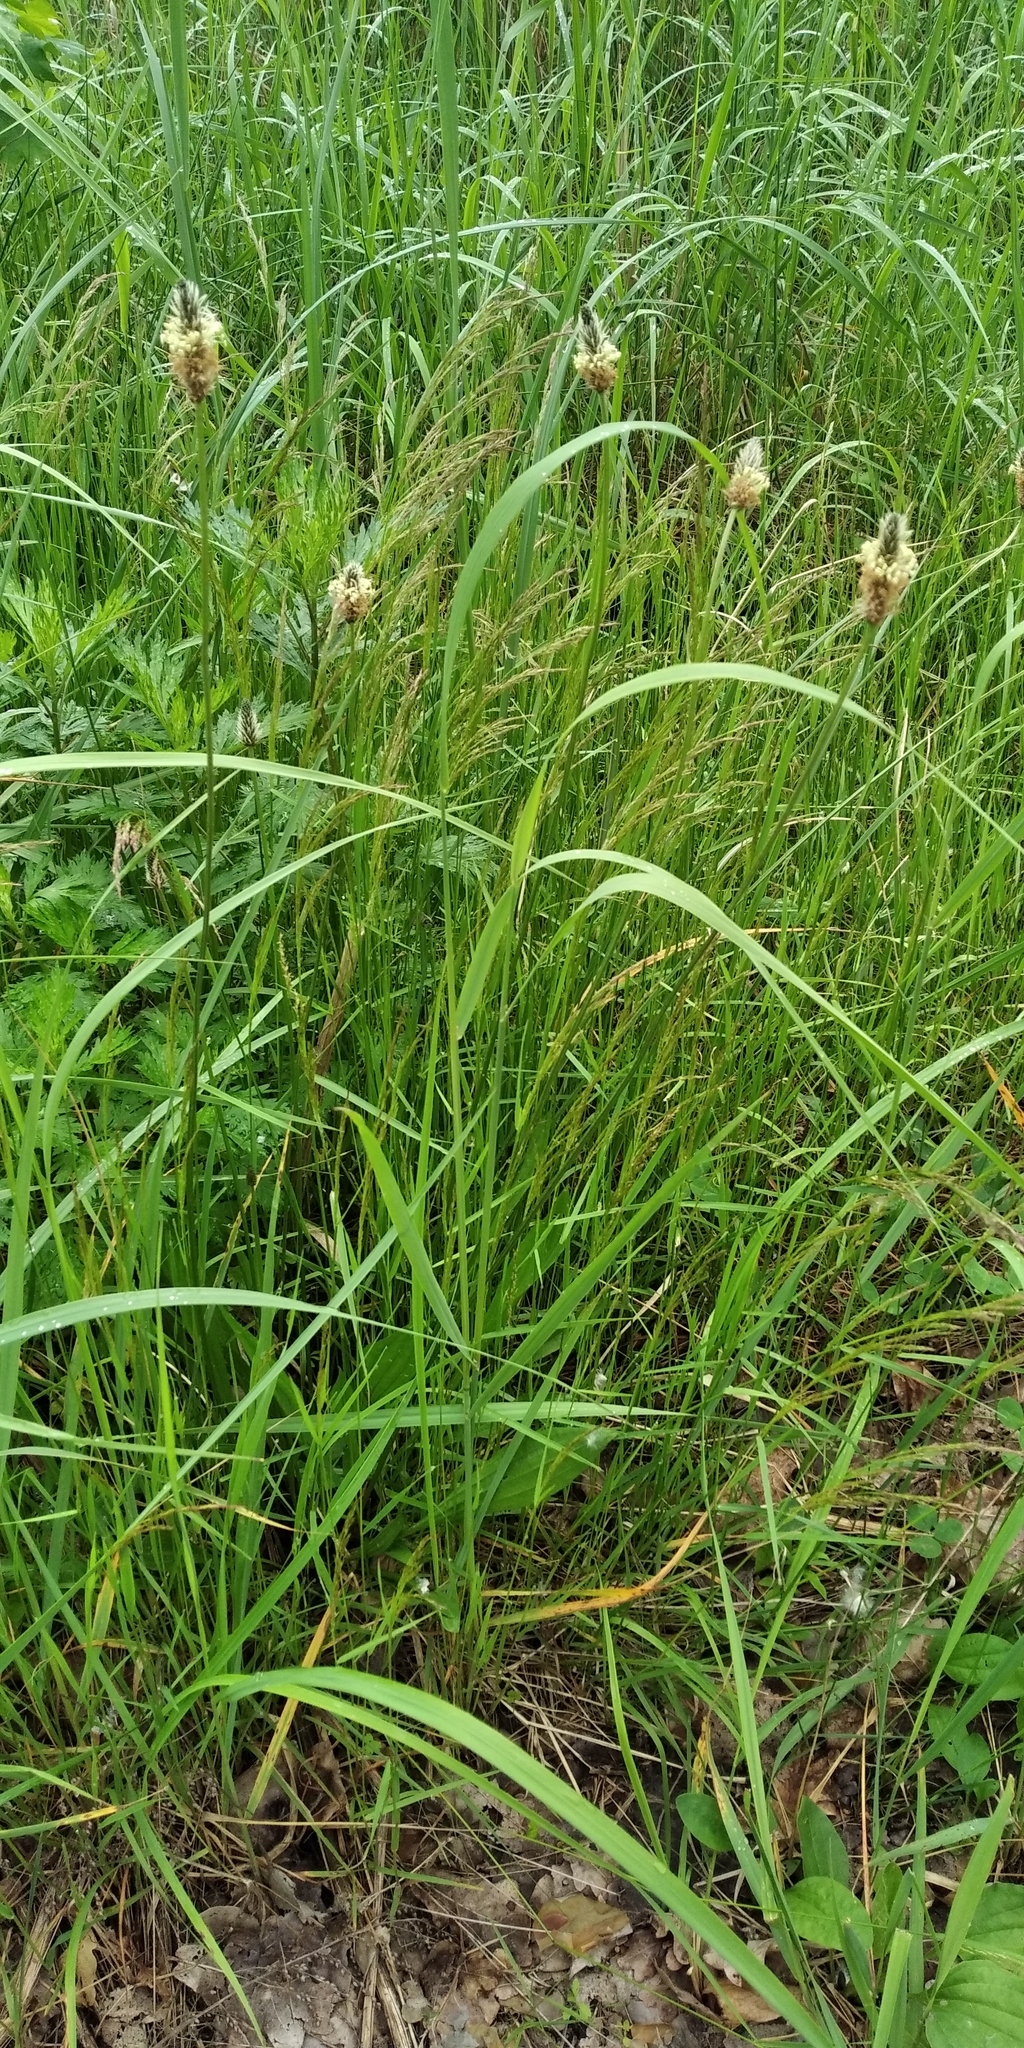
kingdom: Plantae
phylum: Tracheophyta
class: Magnoliopsida
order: Lamiales
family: Plantaginaceae
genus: Plantago
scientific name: Plantago lanceolata
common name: Ribwort plantain
